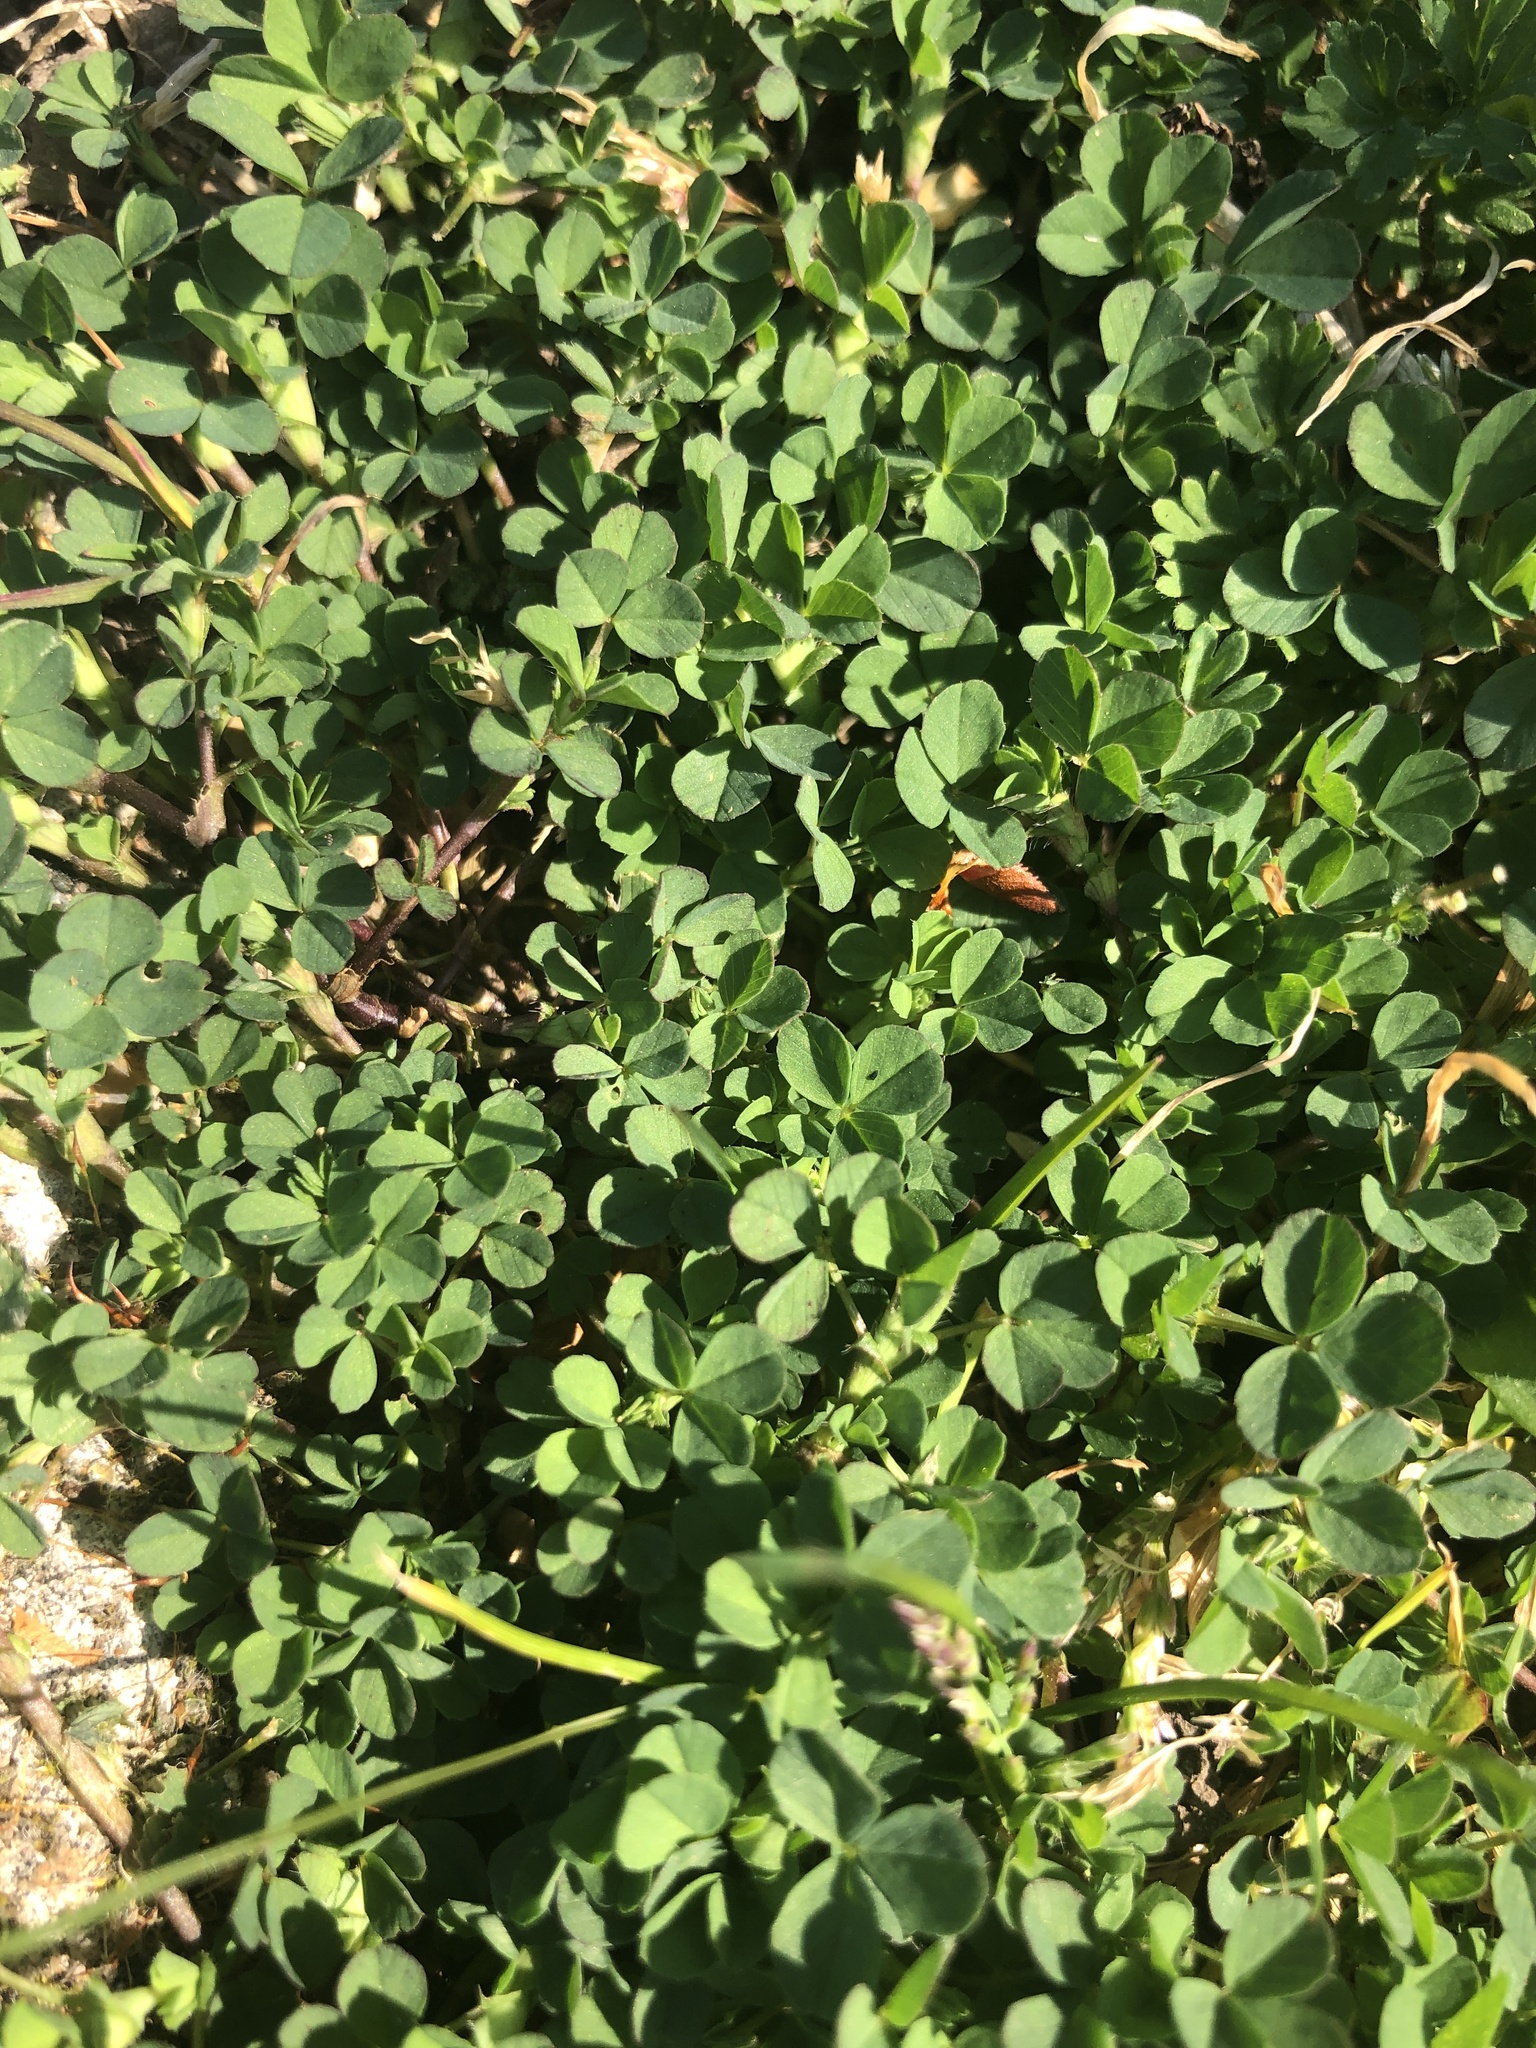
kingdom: Plantae
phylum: Tracheophyta
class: Magnoliopsida
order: Fabales
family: Fabaceae
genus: Trifolium
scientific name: Trifolium repens
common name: White clover
